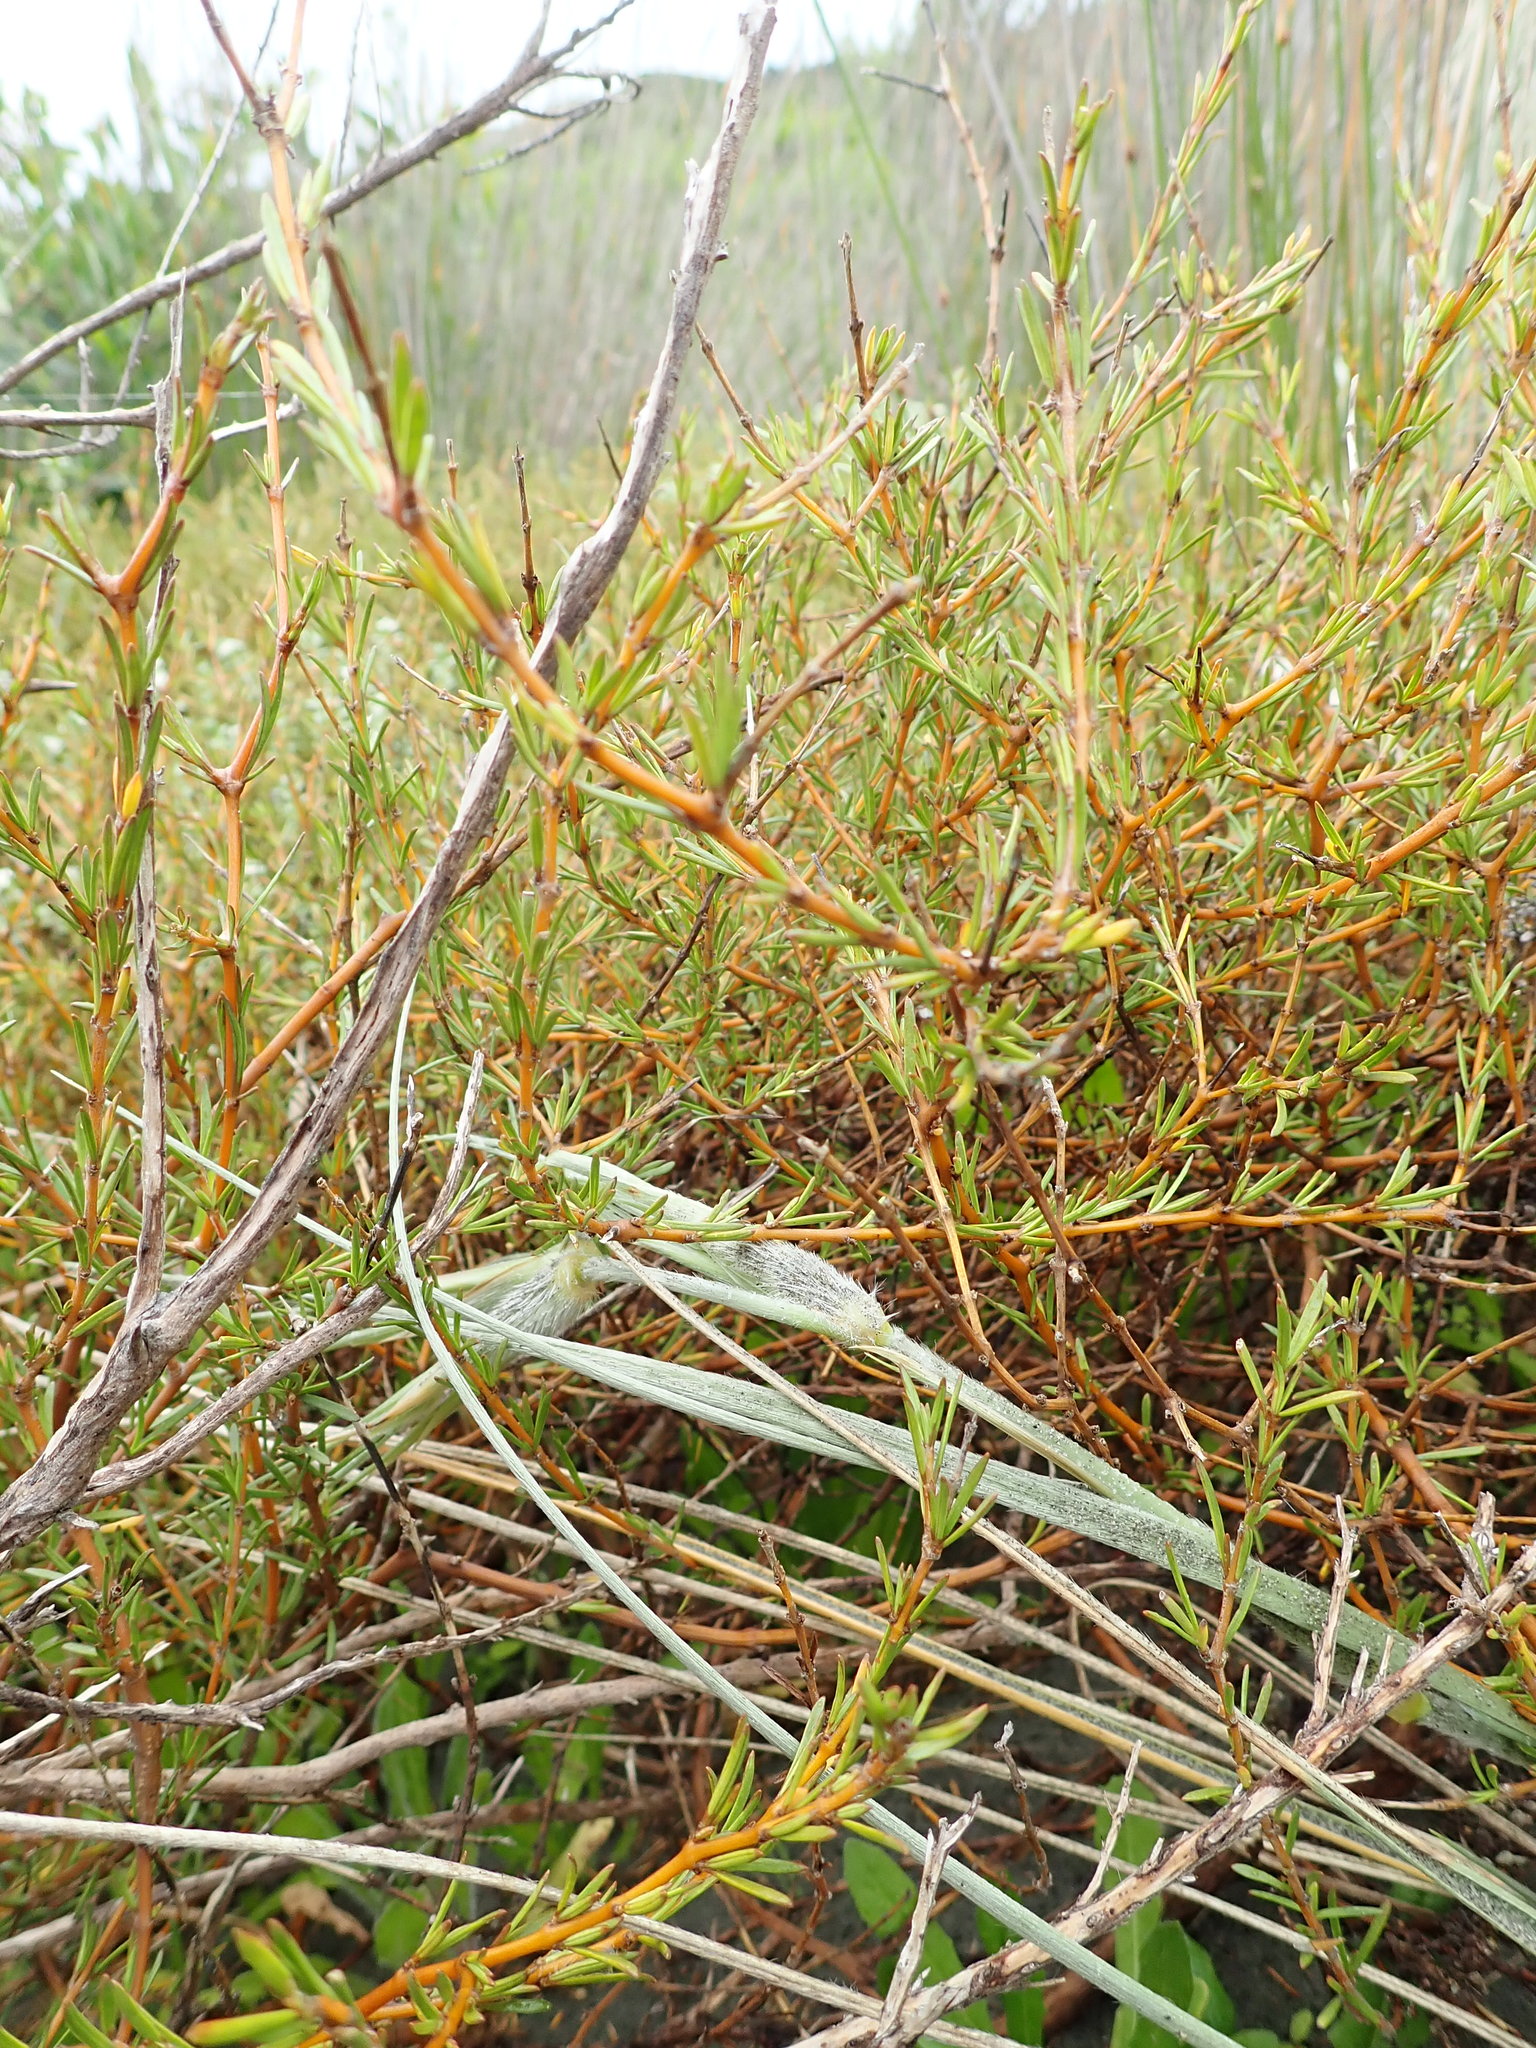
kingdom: Plantae
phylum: Tracheophyta
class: Magnoliopsida
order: Gentianales
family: Rubiaceae
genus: Coprosma
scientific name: Coprosma acerosa
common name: Sand coprosma
